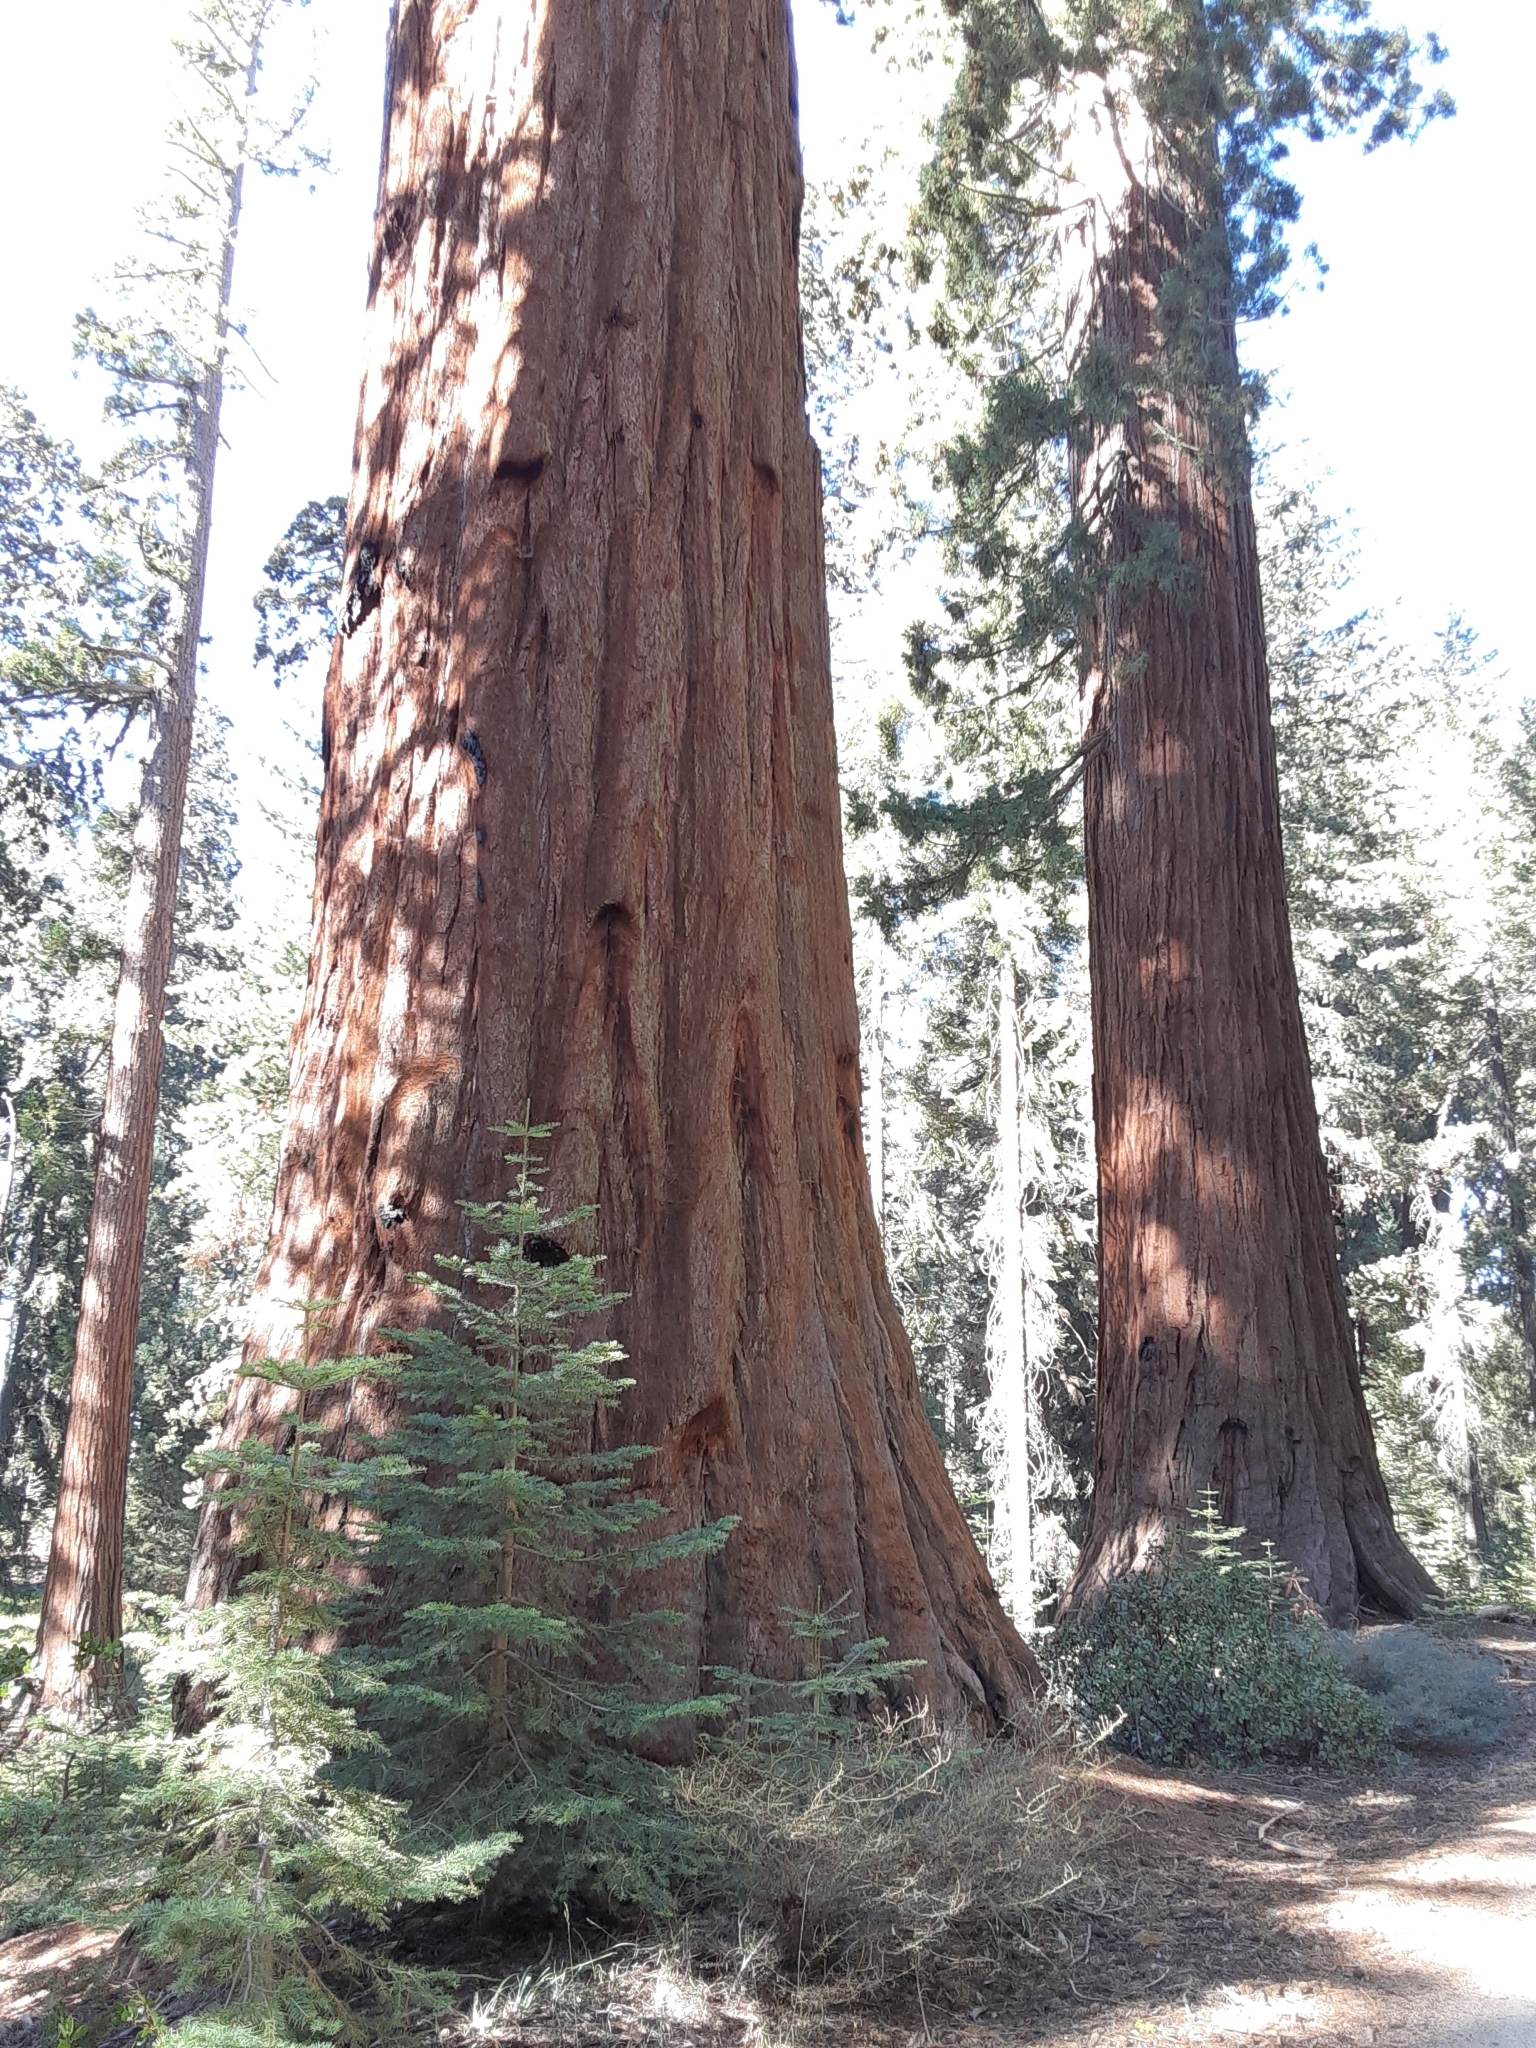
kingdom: Plantae
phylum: Tracheophyta
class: Pinopsida
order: Pinales
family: Cupressaceae
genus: Sequoiadendron
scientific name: Sequoiadendron giganteum
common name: Wellingtonia
